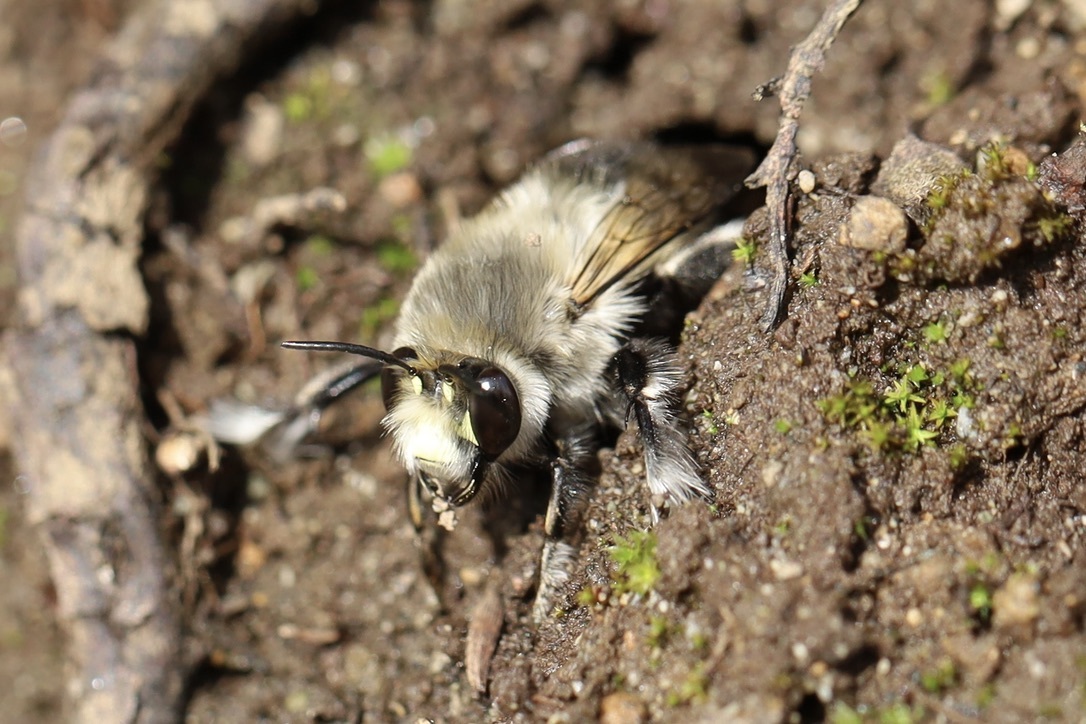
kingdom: Animalia
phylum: Arthropoda
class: Insecta
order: Hymenoptera
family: Apidae
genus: Anthophora
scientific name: Anthophora pacifica
